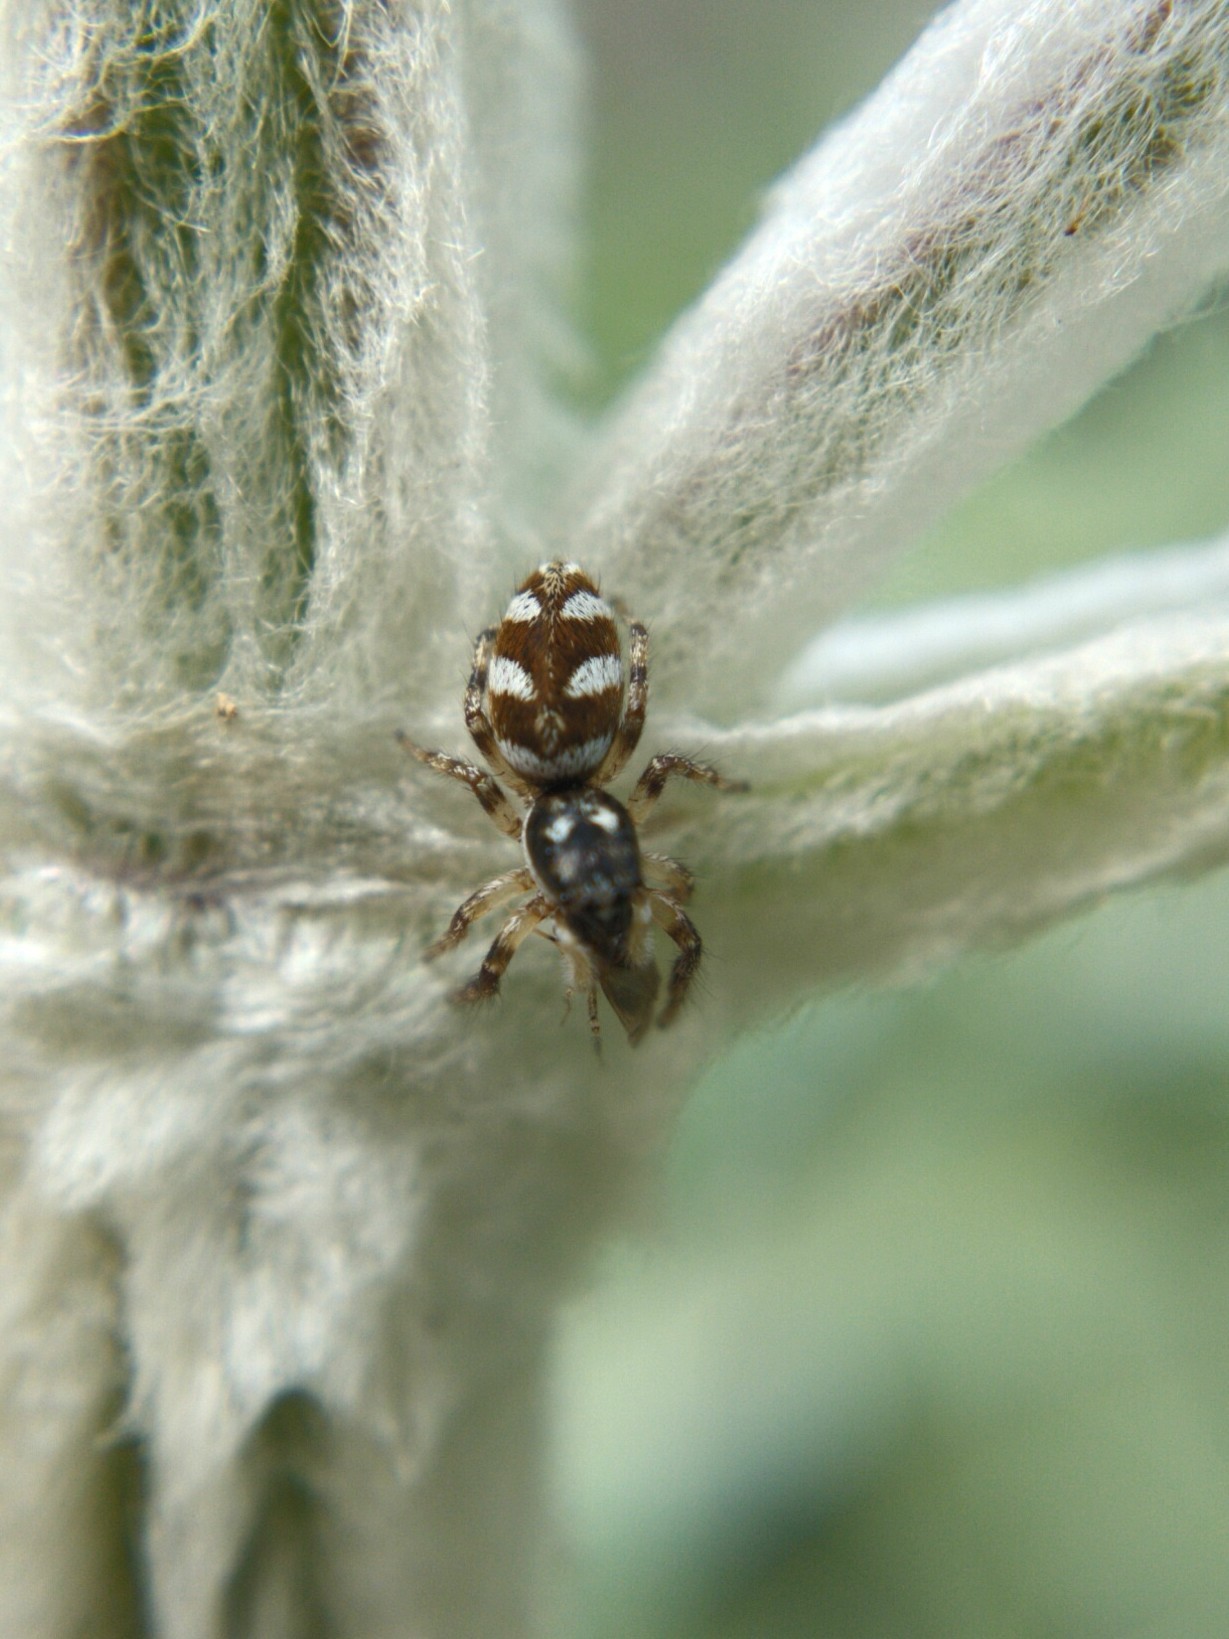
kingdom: Animalia
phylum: Arthropoda
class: Arachnida
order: Araneae
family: Salticidae
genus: Salticus
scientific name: Salticus scenicus
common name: Zebra jumper
